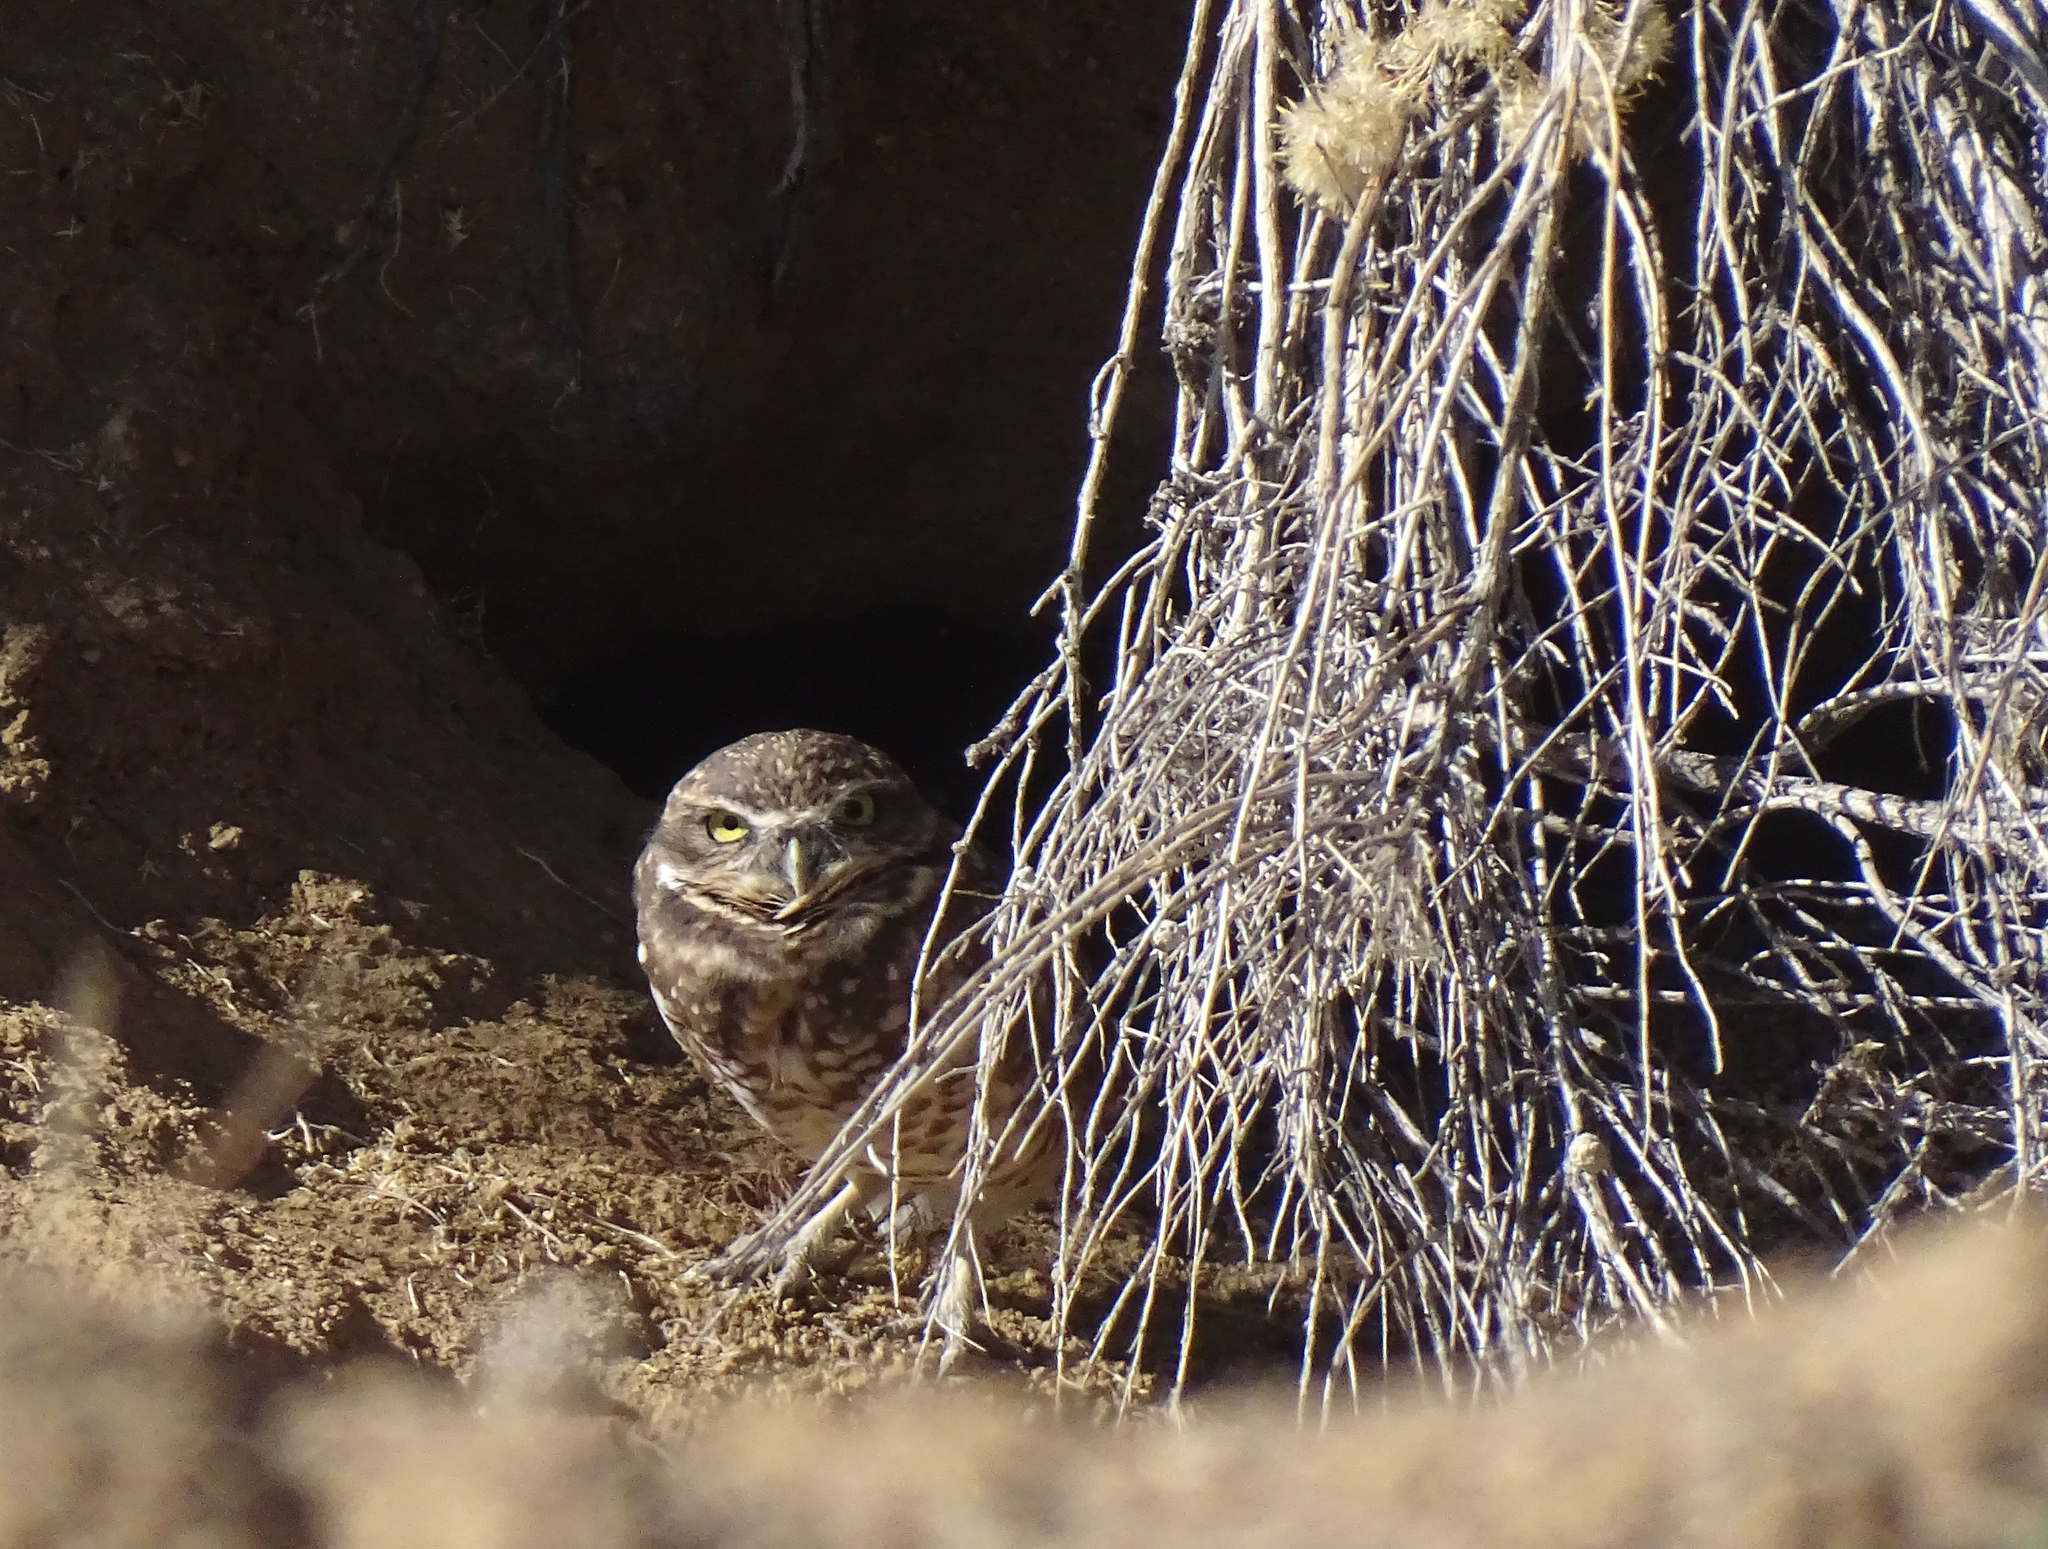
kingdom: Animalia
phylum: Chordata
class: Aves
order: Strigiformes
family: Strigidae
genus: Athene
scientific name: Athene cunicularia
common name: Burrowing owl
